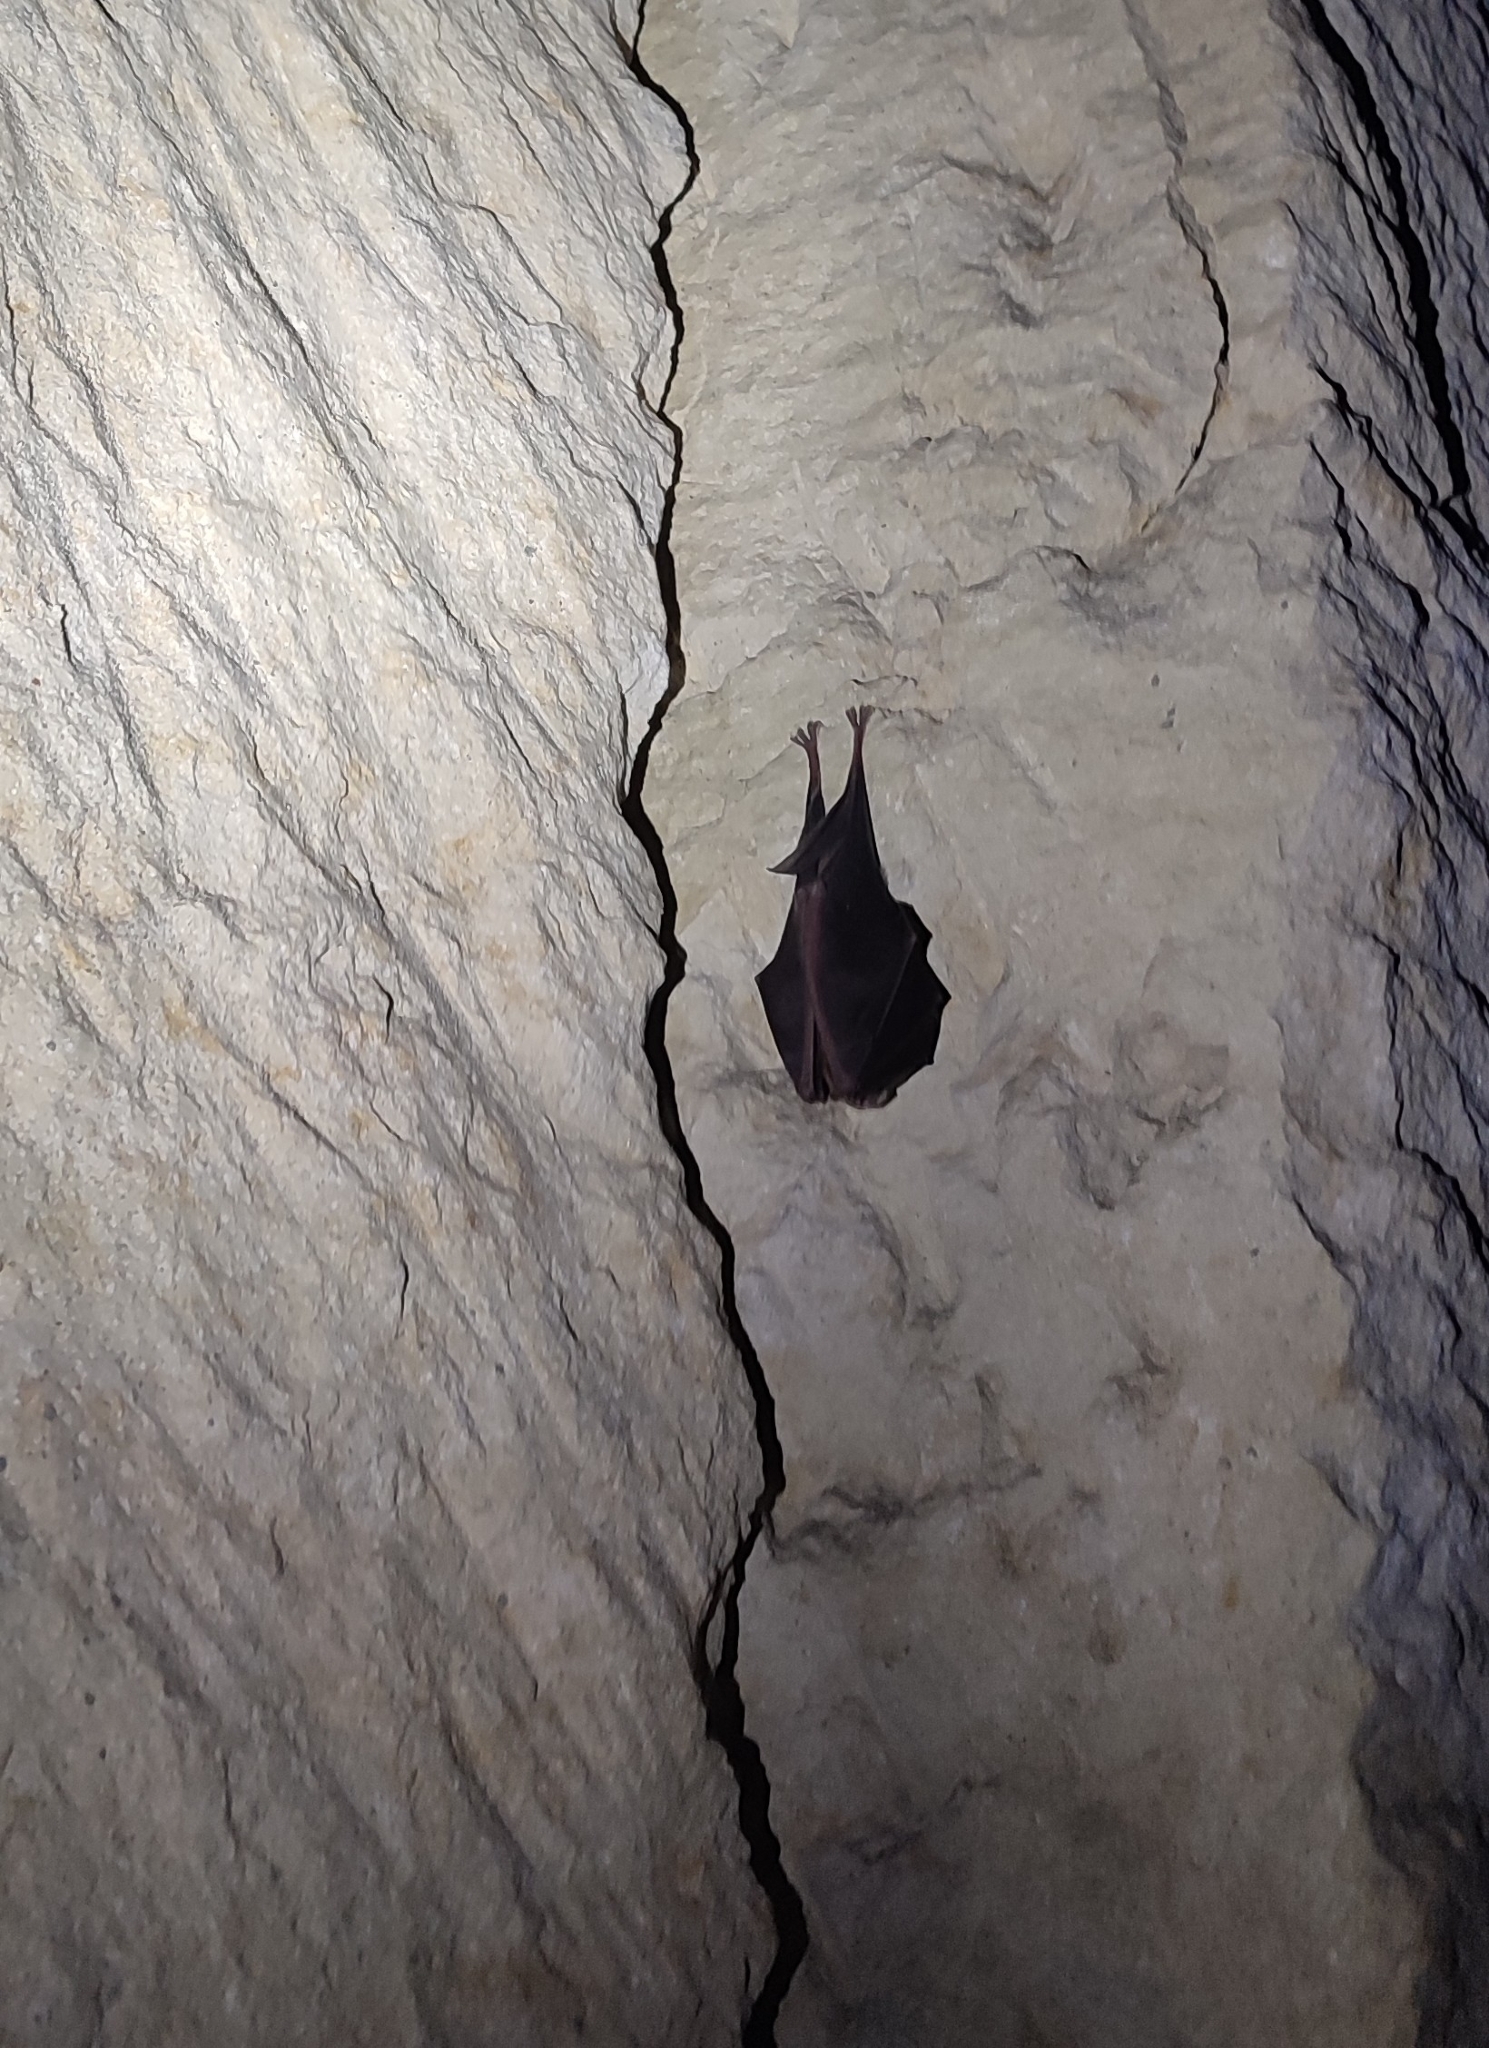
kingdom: Animalia
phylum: Chordata
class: Mammalia
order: Chiroptera
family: Rhinolophidae
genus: Rhinolophus
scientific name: Rhinolophus ferrumequinum
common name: Greater horseshoe bat
